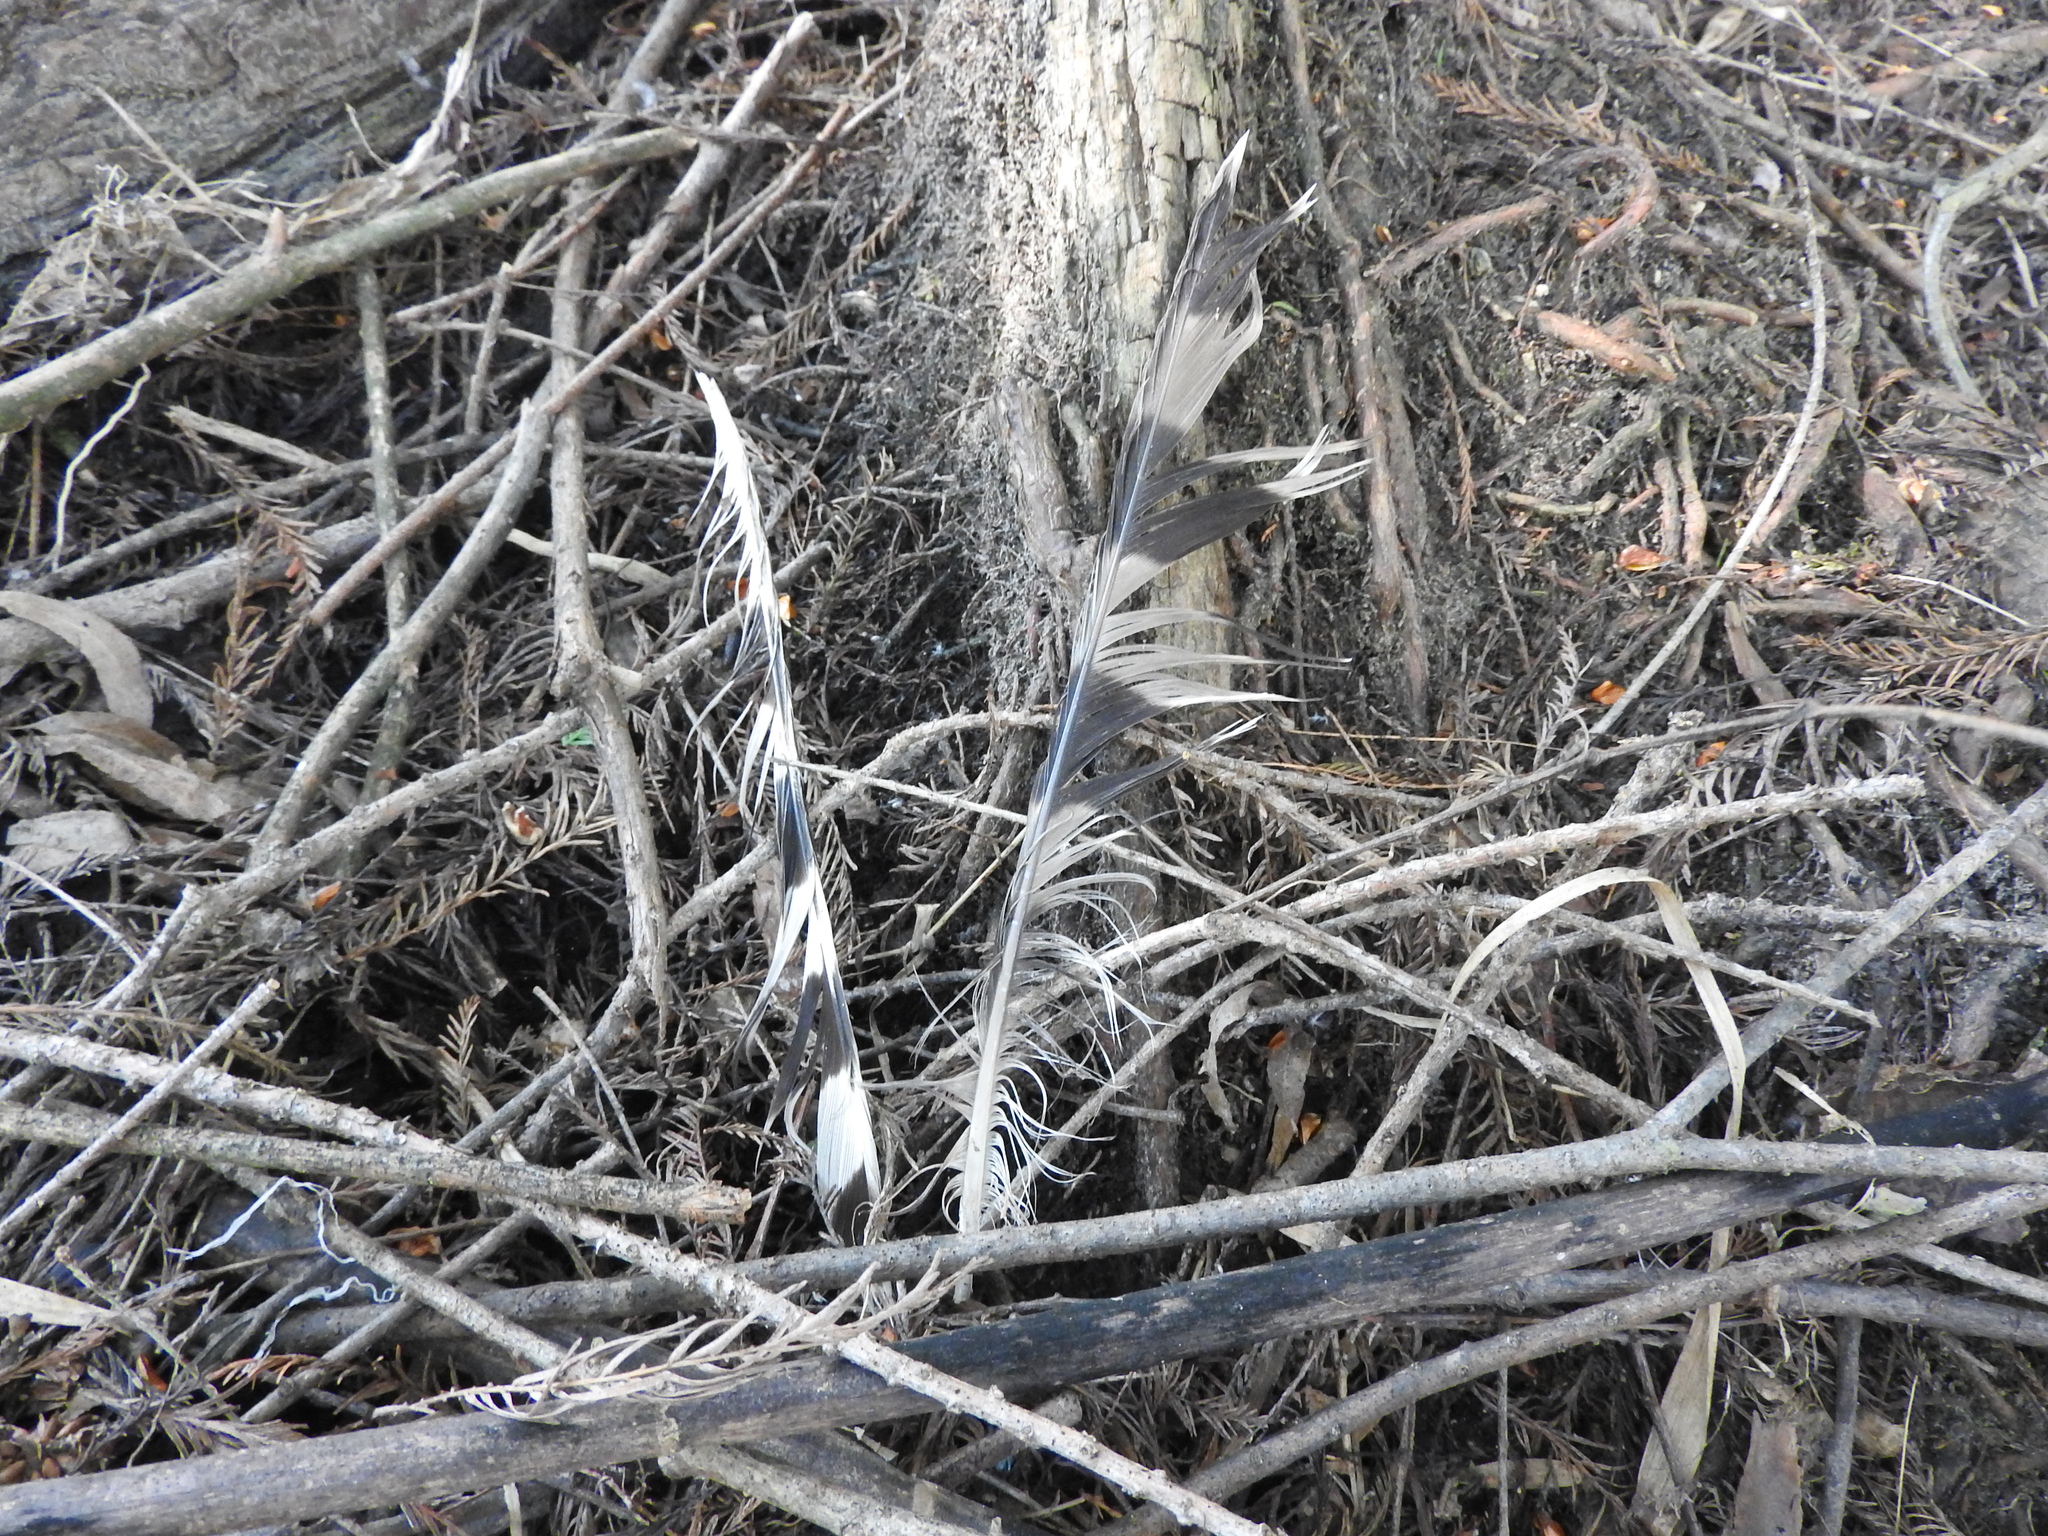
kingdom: Animalia
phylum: Chordata
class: Aves
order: Accipitriformes
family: Accipitridae
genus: Accipiter
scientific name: Accipiter cooperii
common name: Cooper's hawk
